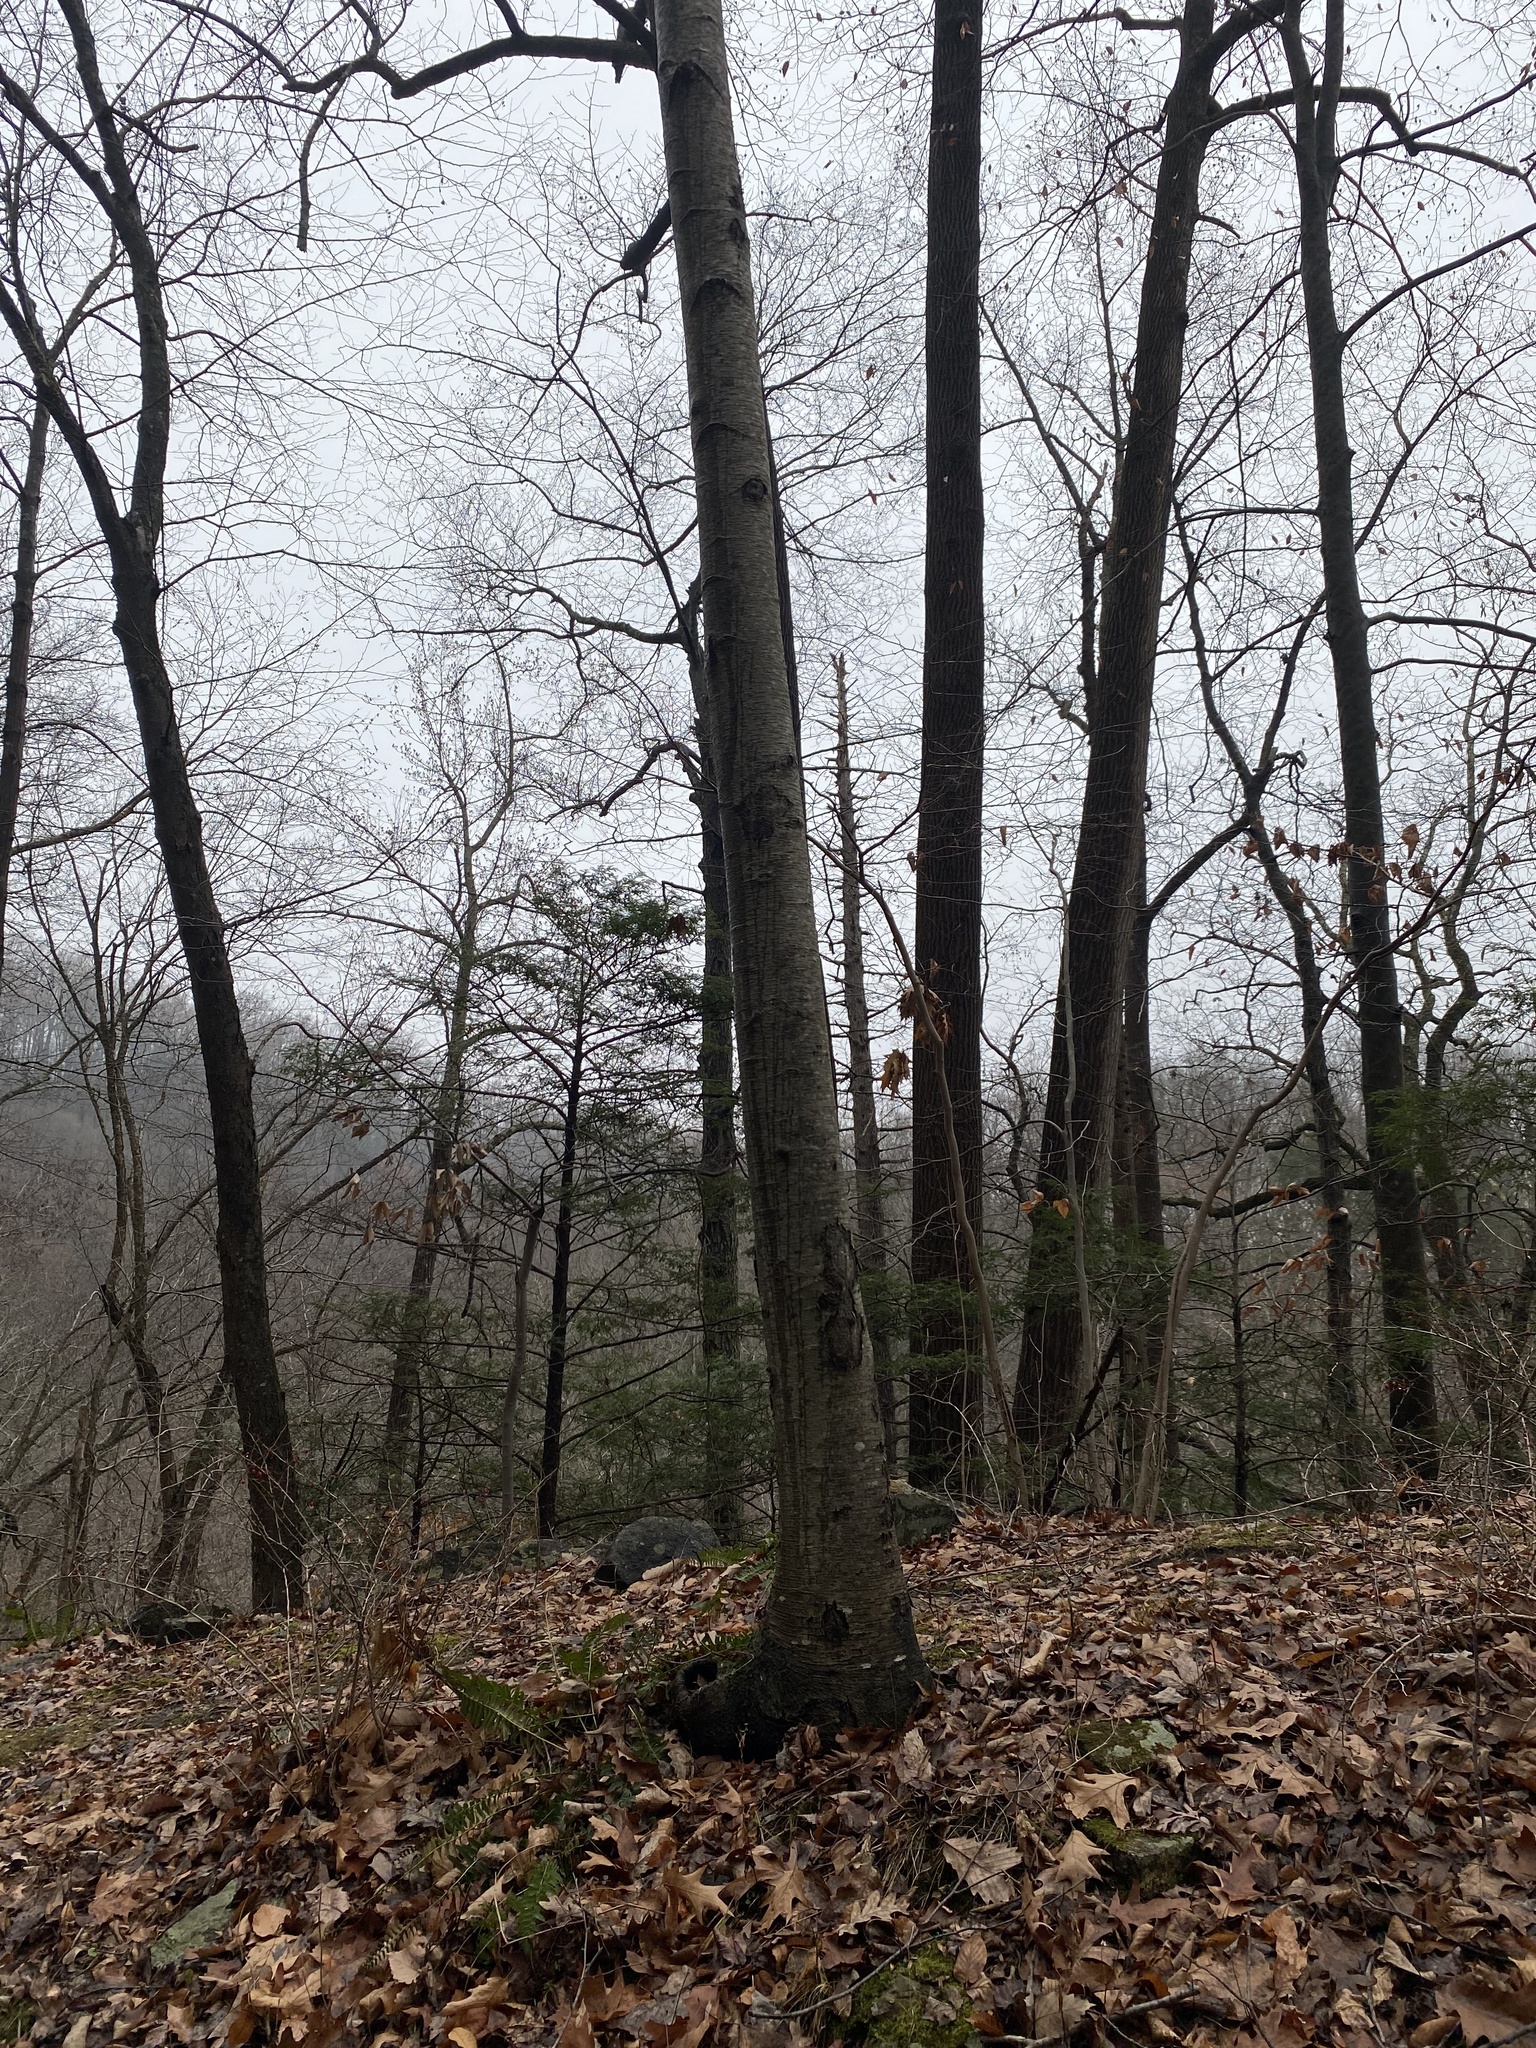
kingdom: Plantae
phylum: Tracheophyta
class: Magnoliopsida
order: Fagales
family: Betulaceae
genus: Betula
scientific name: Betula lenta
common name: Black birch
